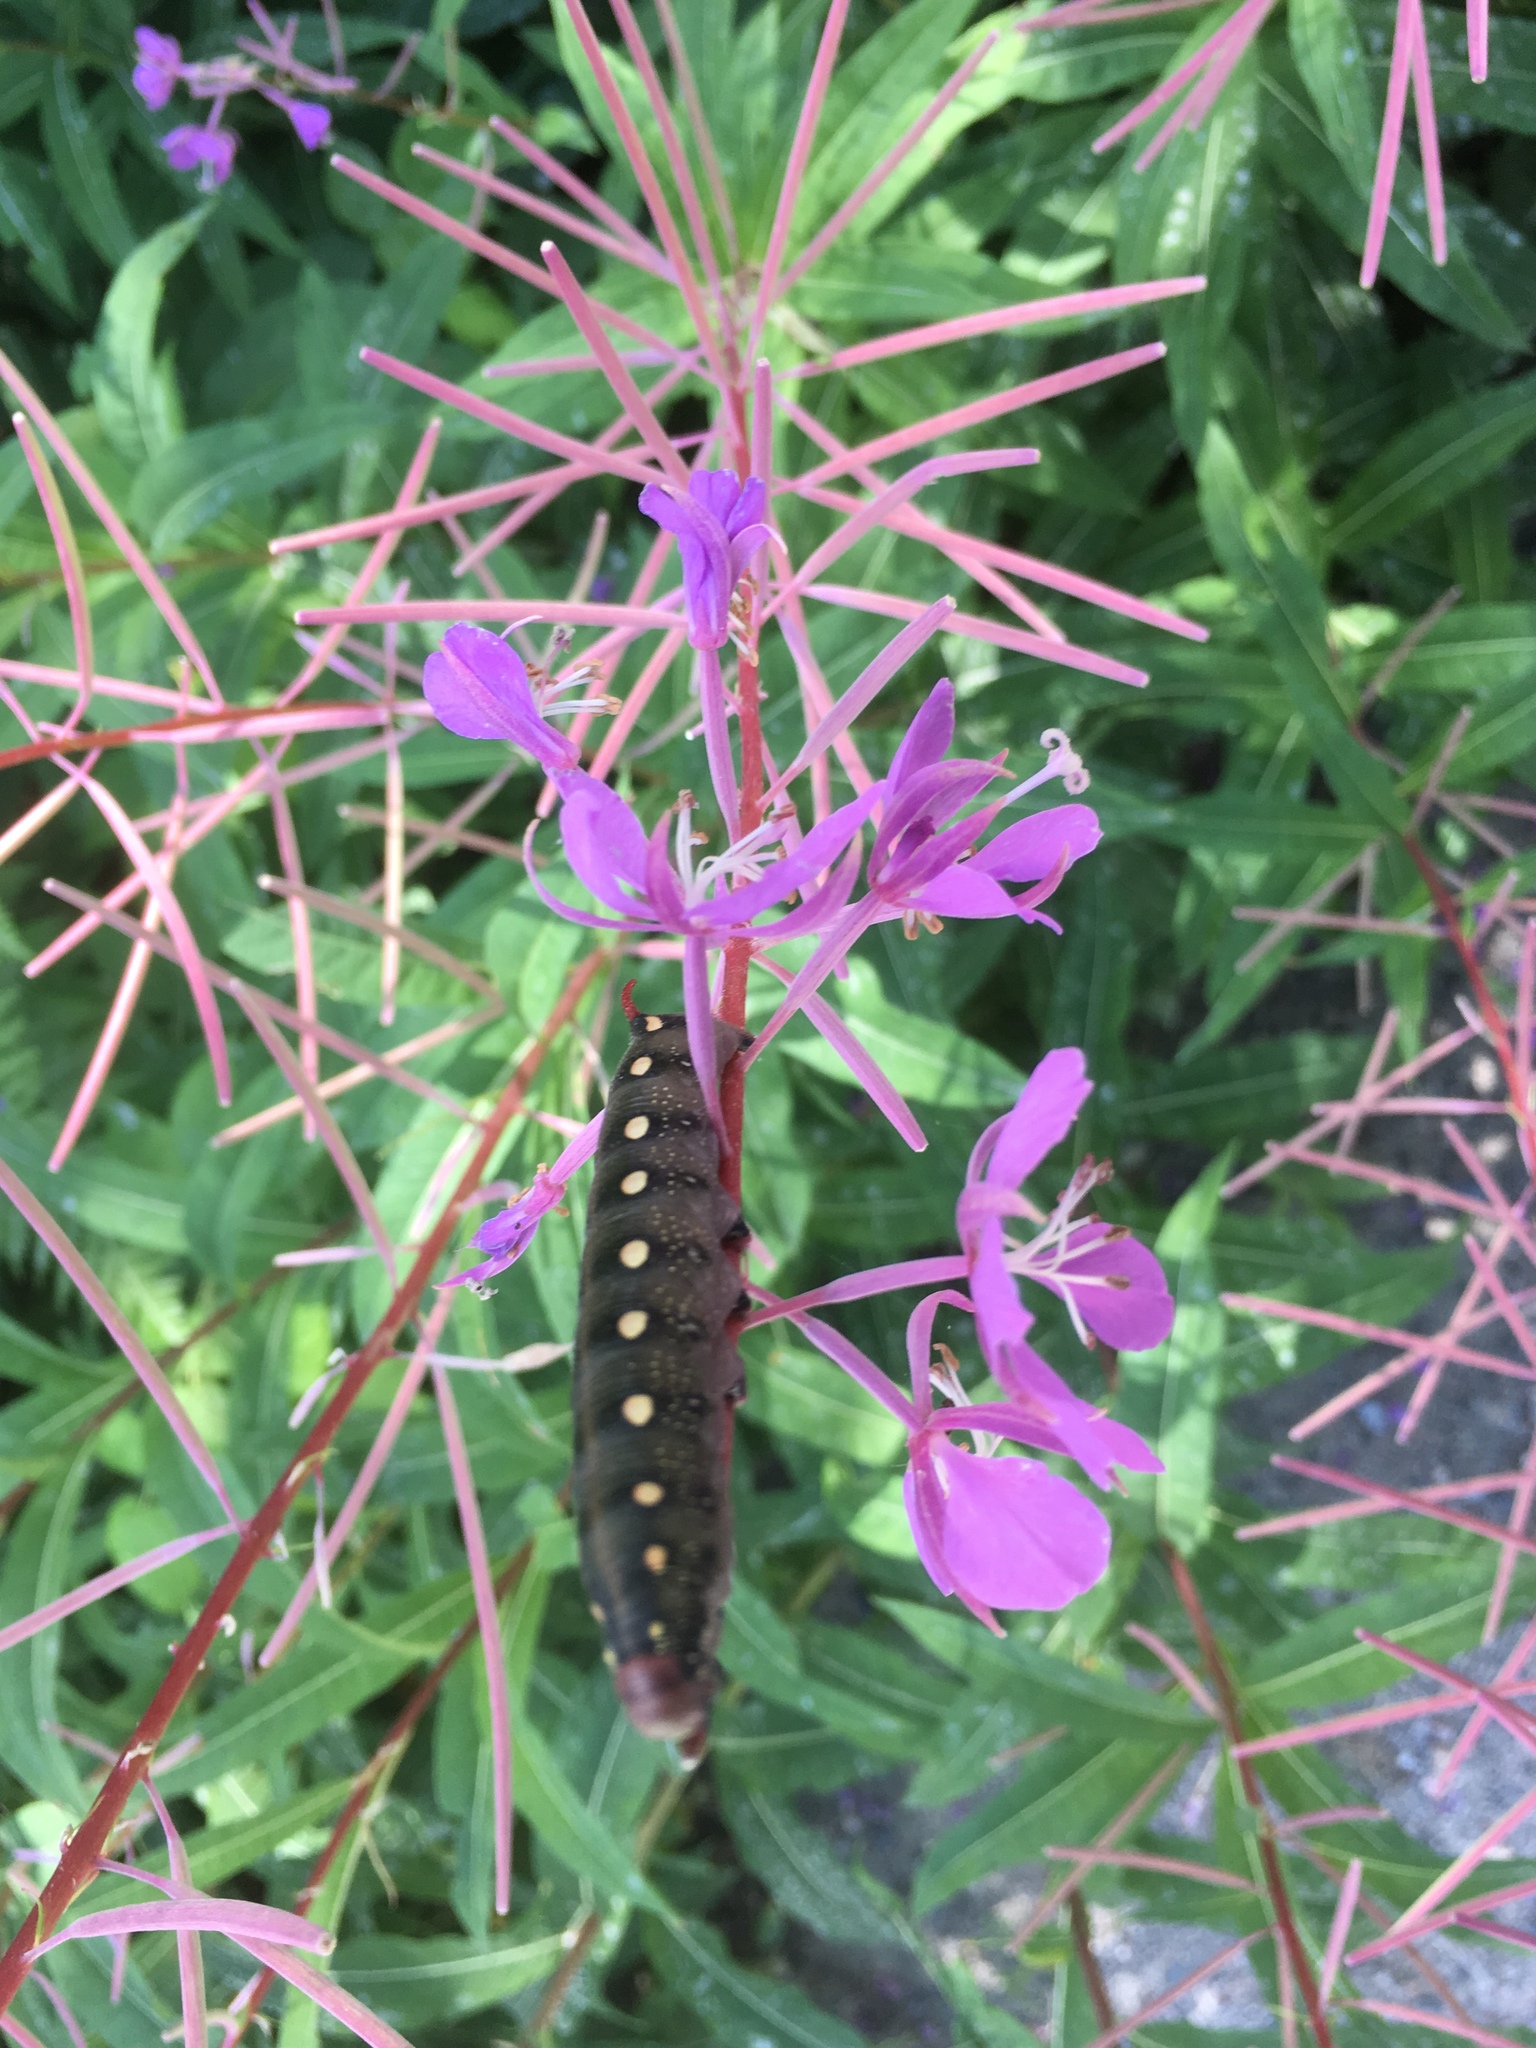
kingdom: Animalia
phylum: Arthropoda
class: Insecta
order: Lepidoptera
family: Sphingidae
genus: Hyles
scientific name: Hyles gallii
